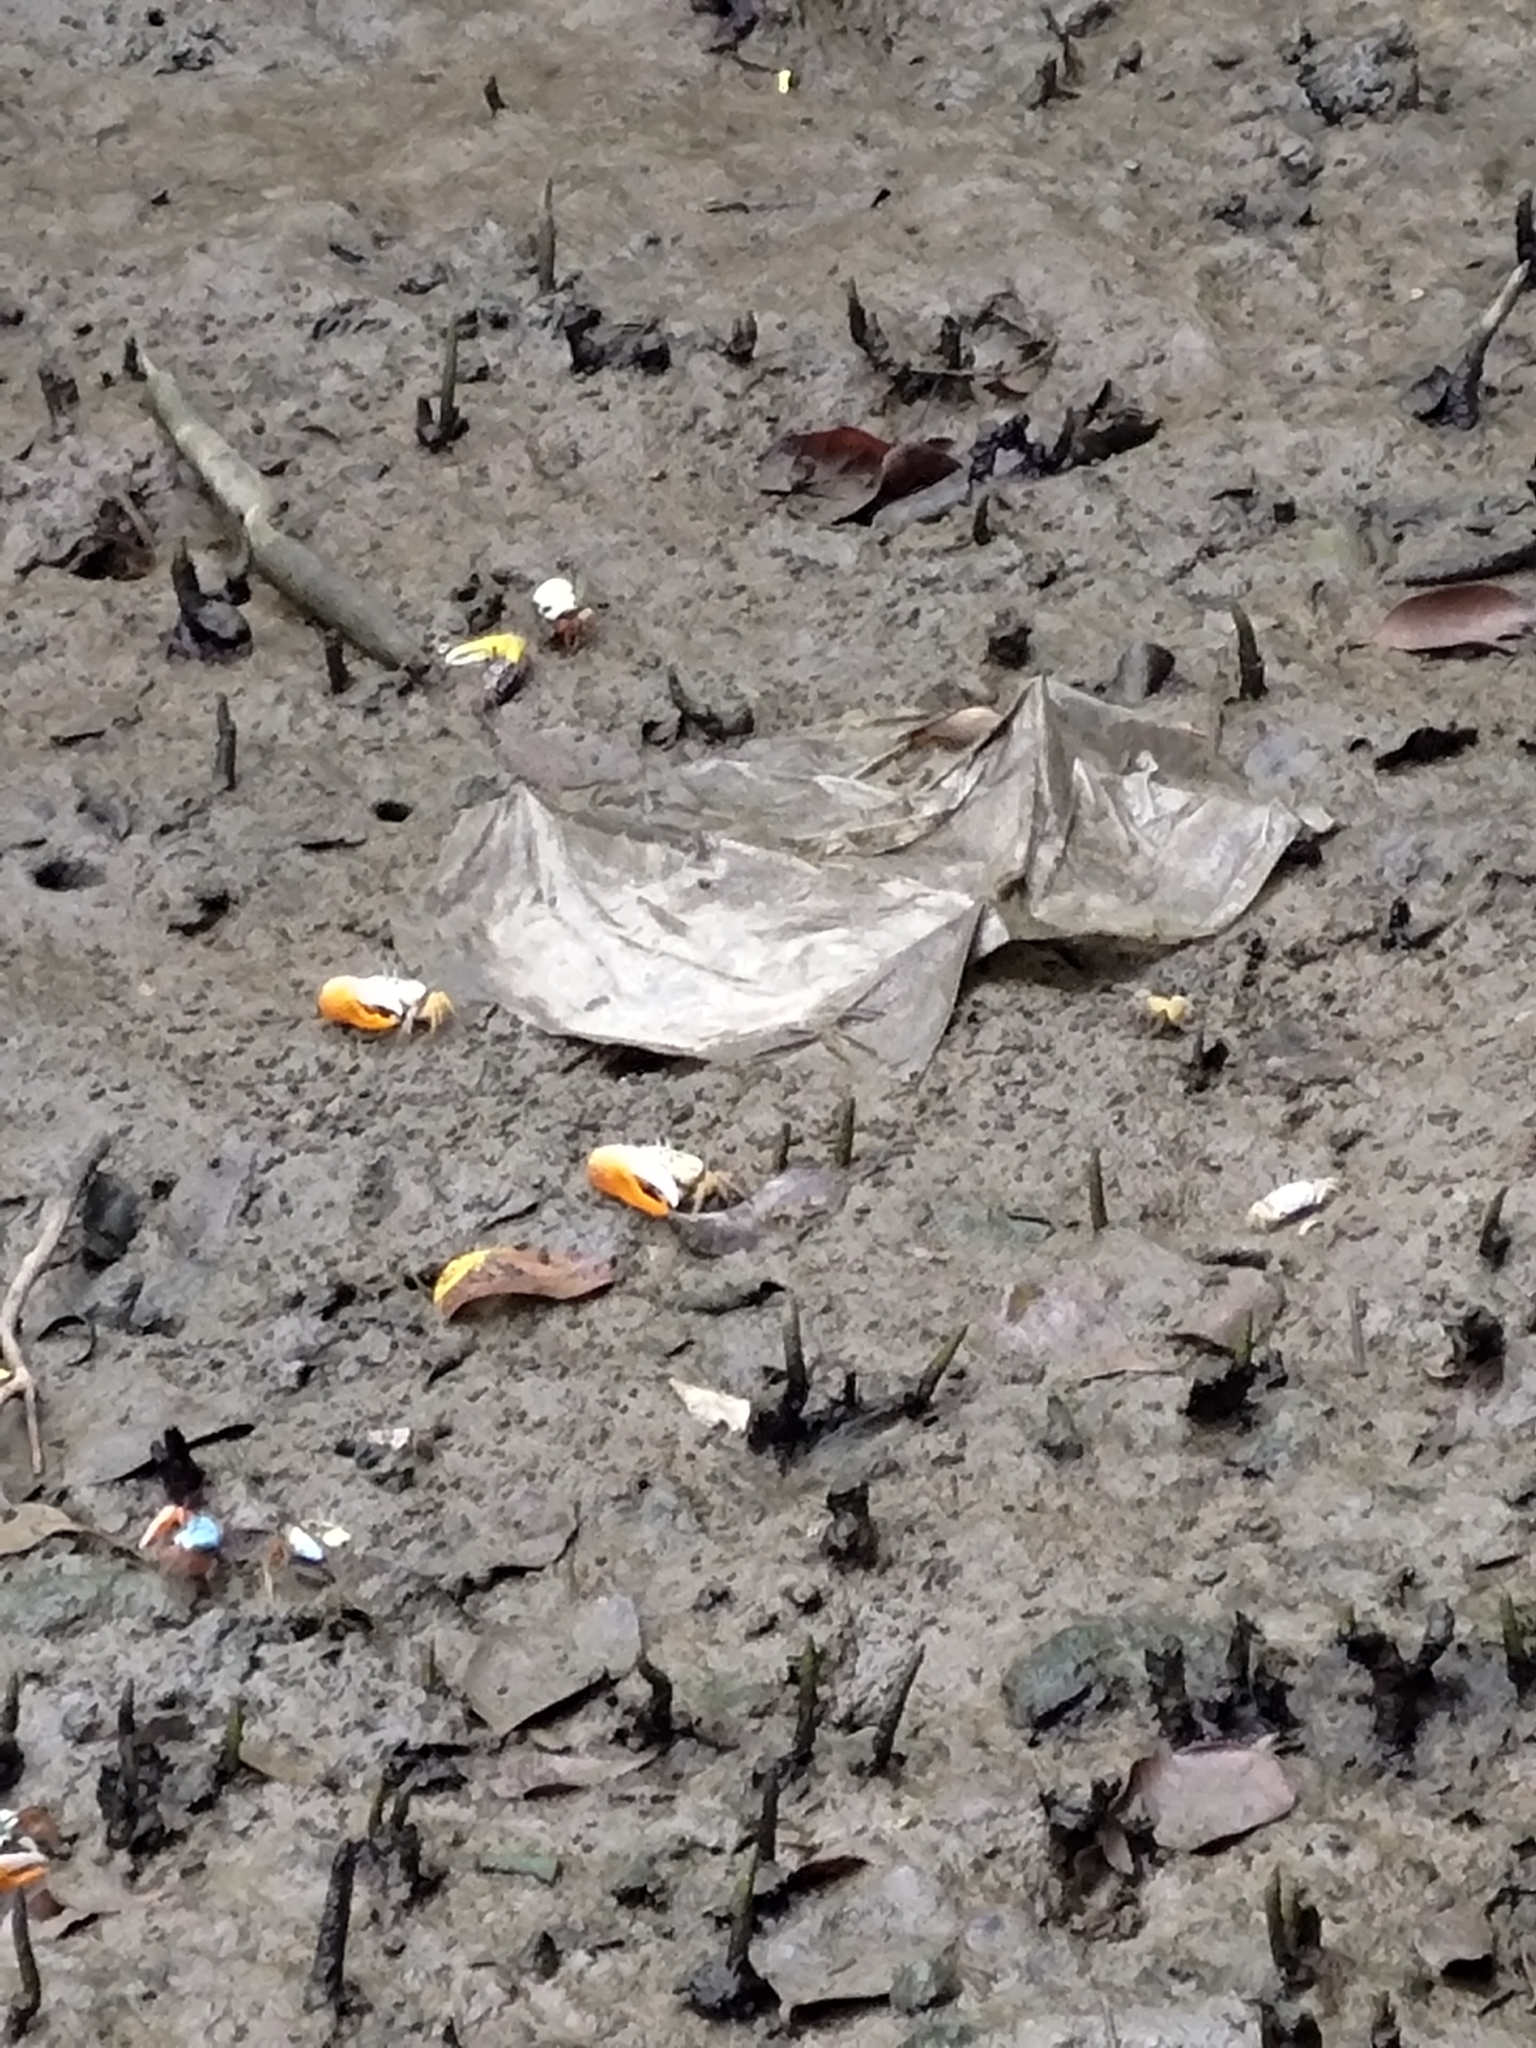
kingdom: Animalia
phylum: Arthropoda
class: Malacostraca
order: Decapoda
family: Ocypodidae
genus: Gelasimus
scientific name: Gelasimus jocelynae
